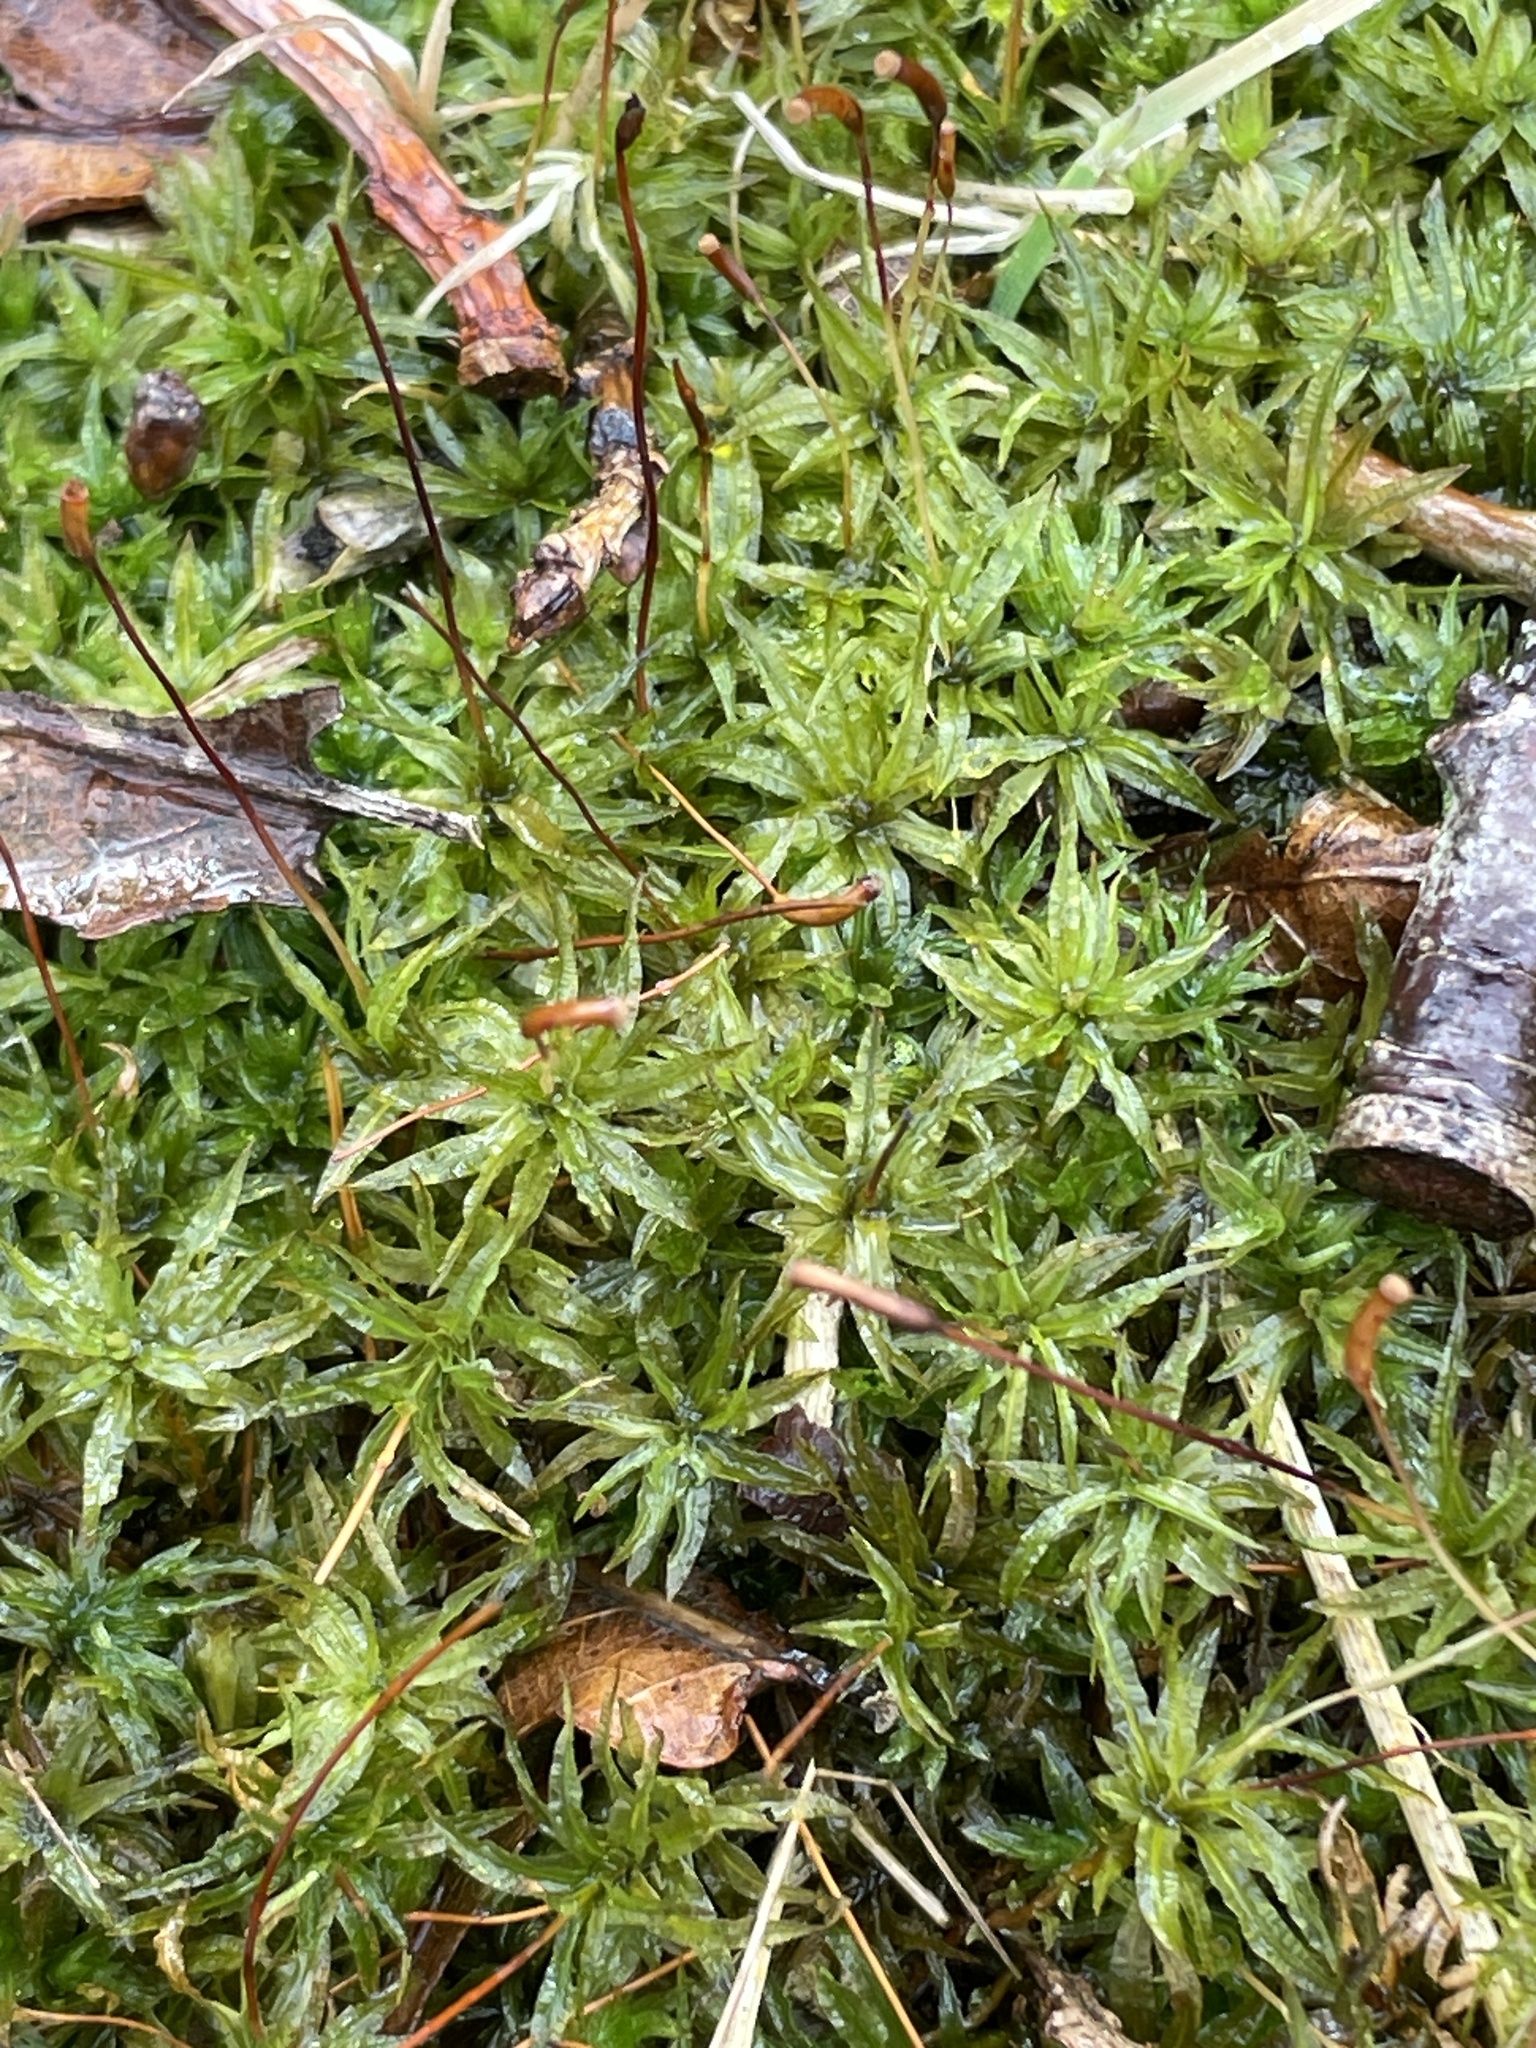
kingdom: Plantae
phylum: Bryophyta
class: Polytrichopsida
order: Polytrichales
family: Polytrichaceae
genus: Atrichum
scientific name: Atrichum undulatum
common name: Common smoothcap
